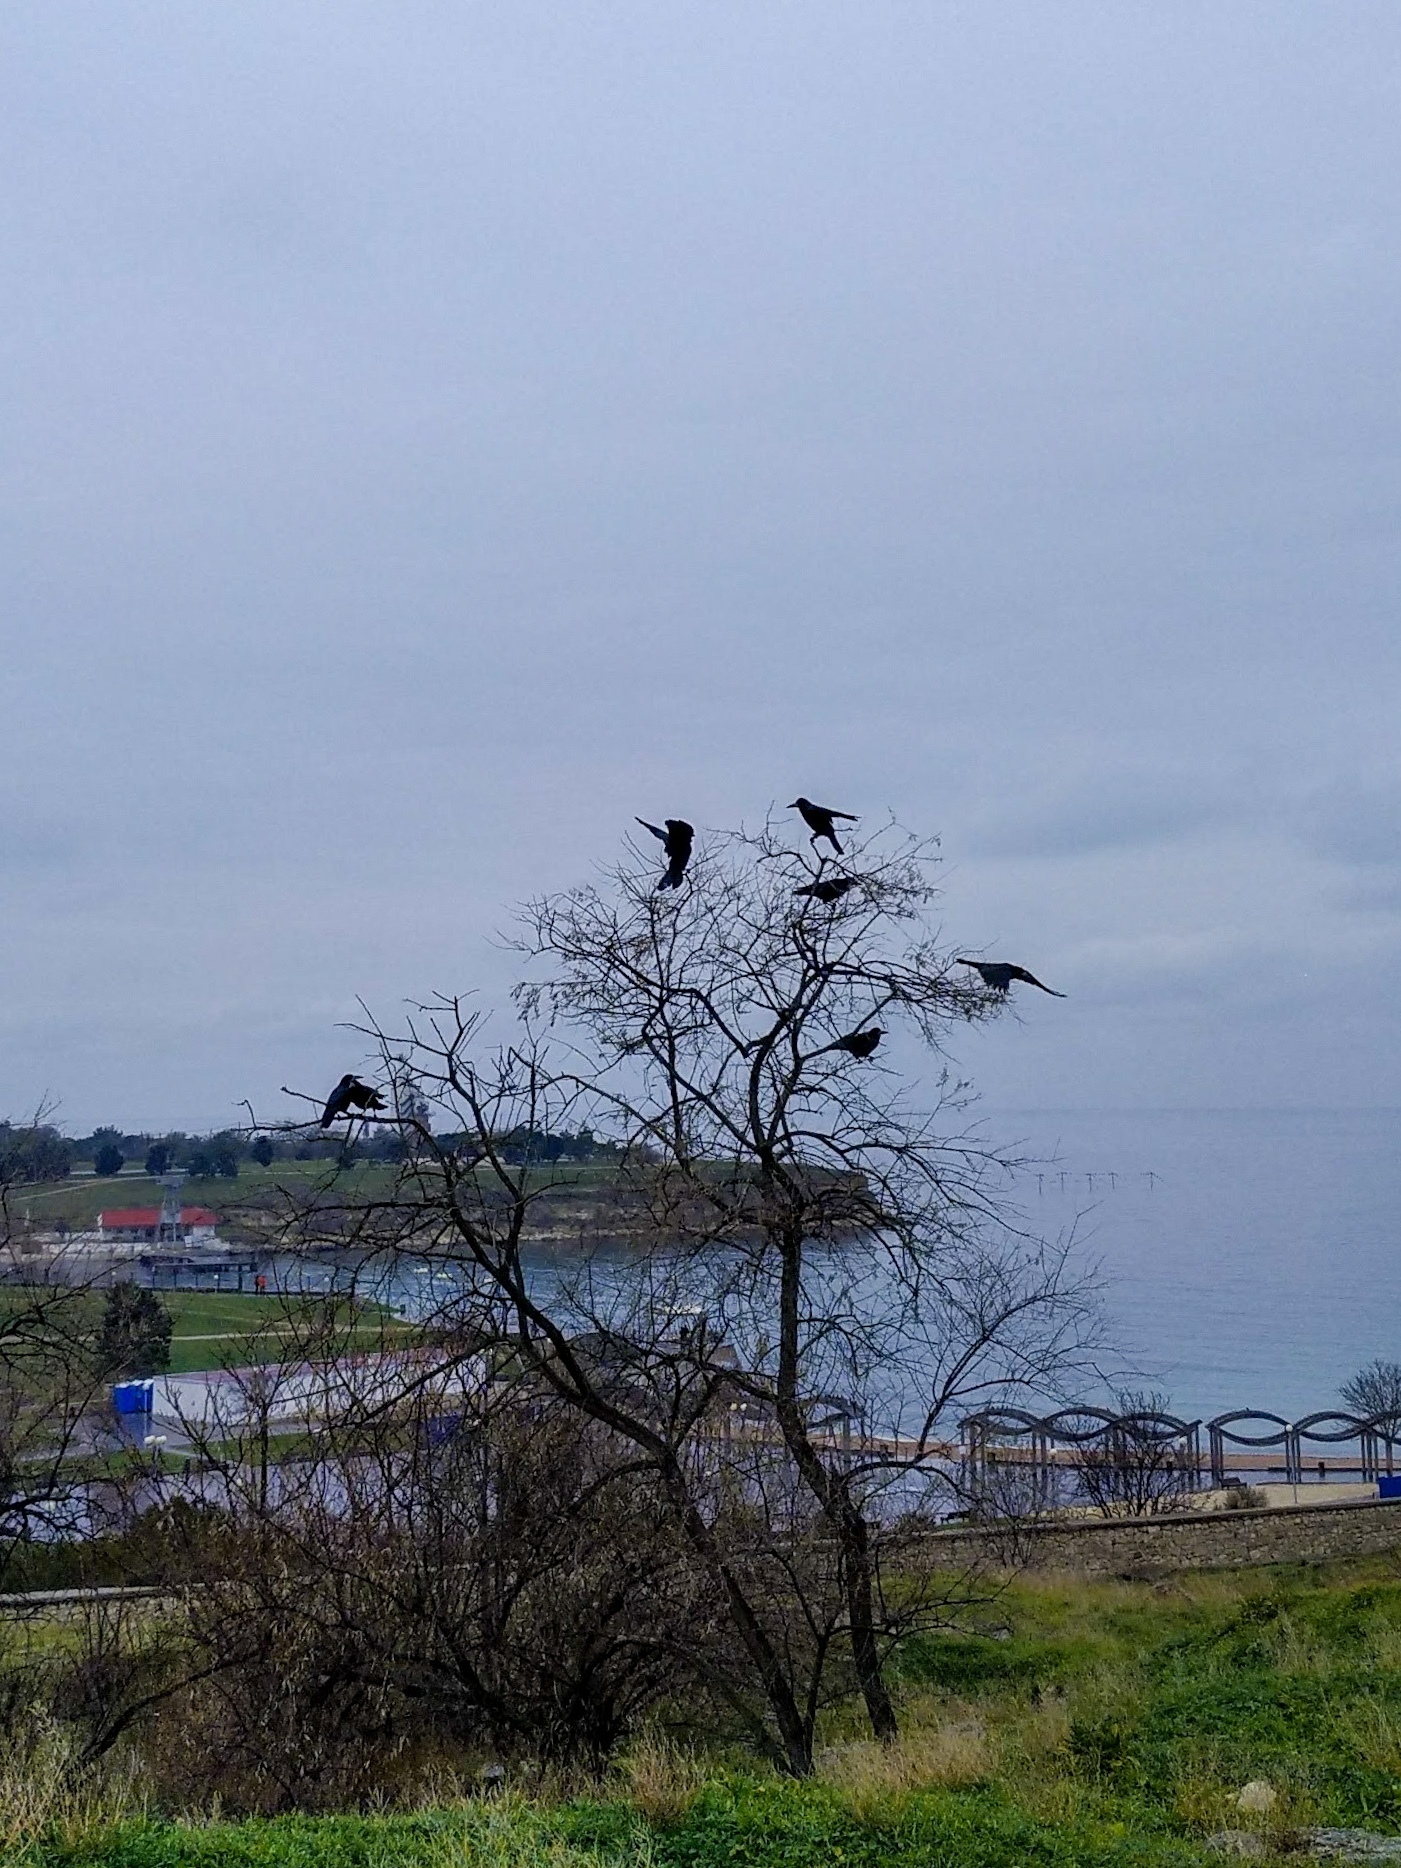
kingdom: Animalia
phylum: Chordata
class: Aves
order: Passeriformes
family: Corvidae
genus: Corvus
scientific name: Corvus frugilegus
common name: Rook
